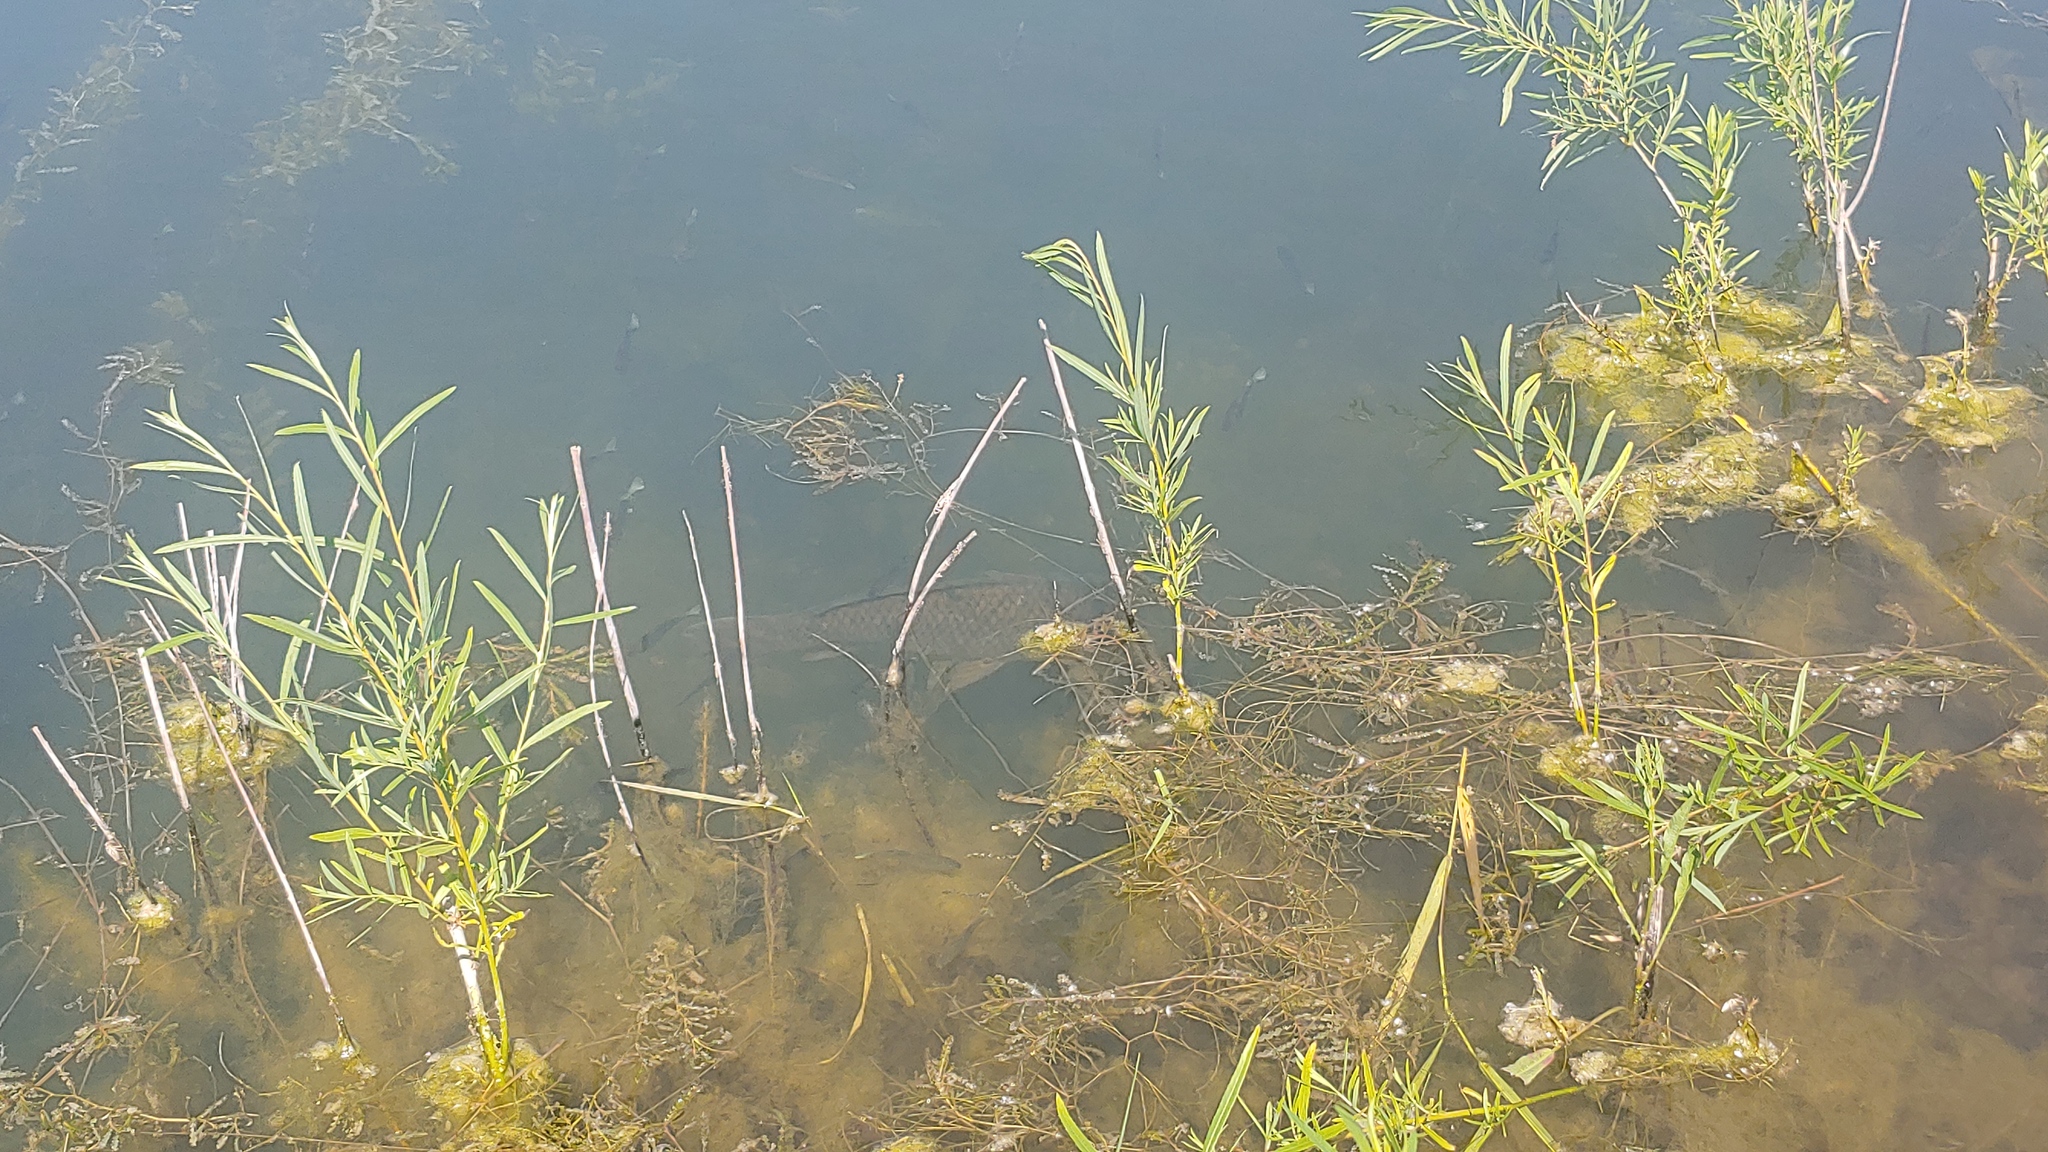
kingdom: Animalia
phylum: Chordata
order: Cypriniformes
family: Cyprinidae
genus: Cyprinus
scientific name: Cyprinus carpio
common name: Common carp
